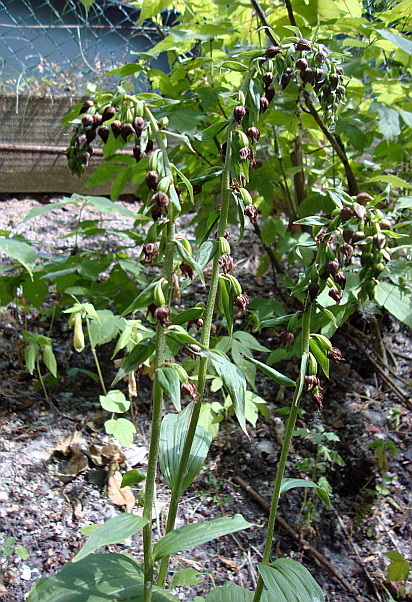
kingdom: Plantae
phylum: Tracheophyta
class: Liliopsida
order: Asparagales
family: Orchidaceae
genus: Epipactis
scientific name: Epipactis helleborine
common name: Broad-leaved helleborine
